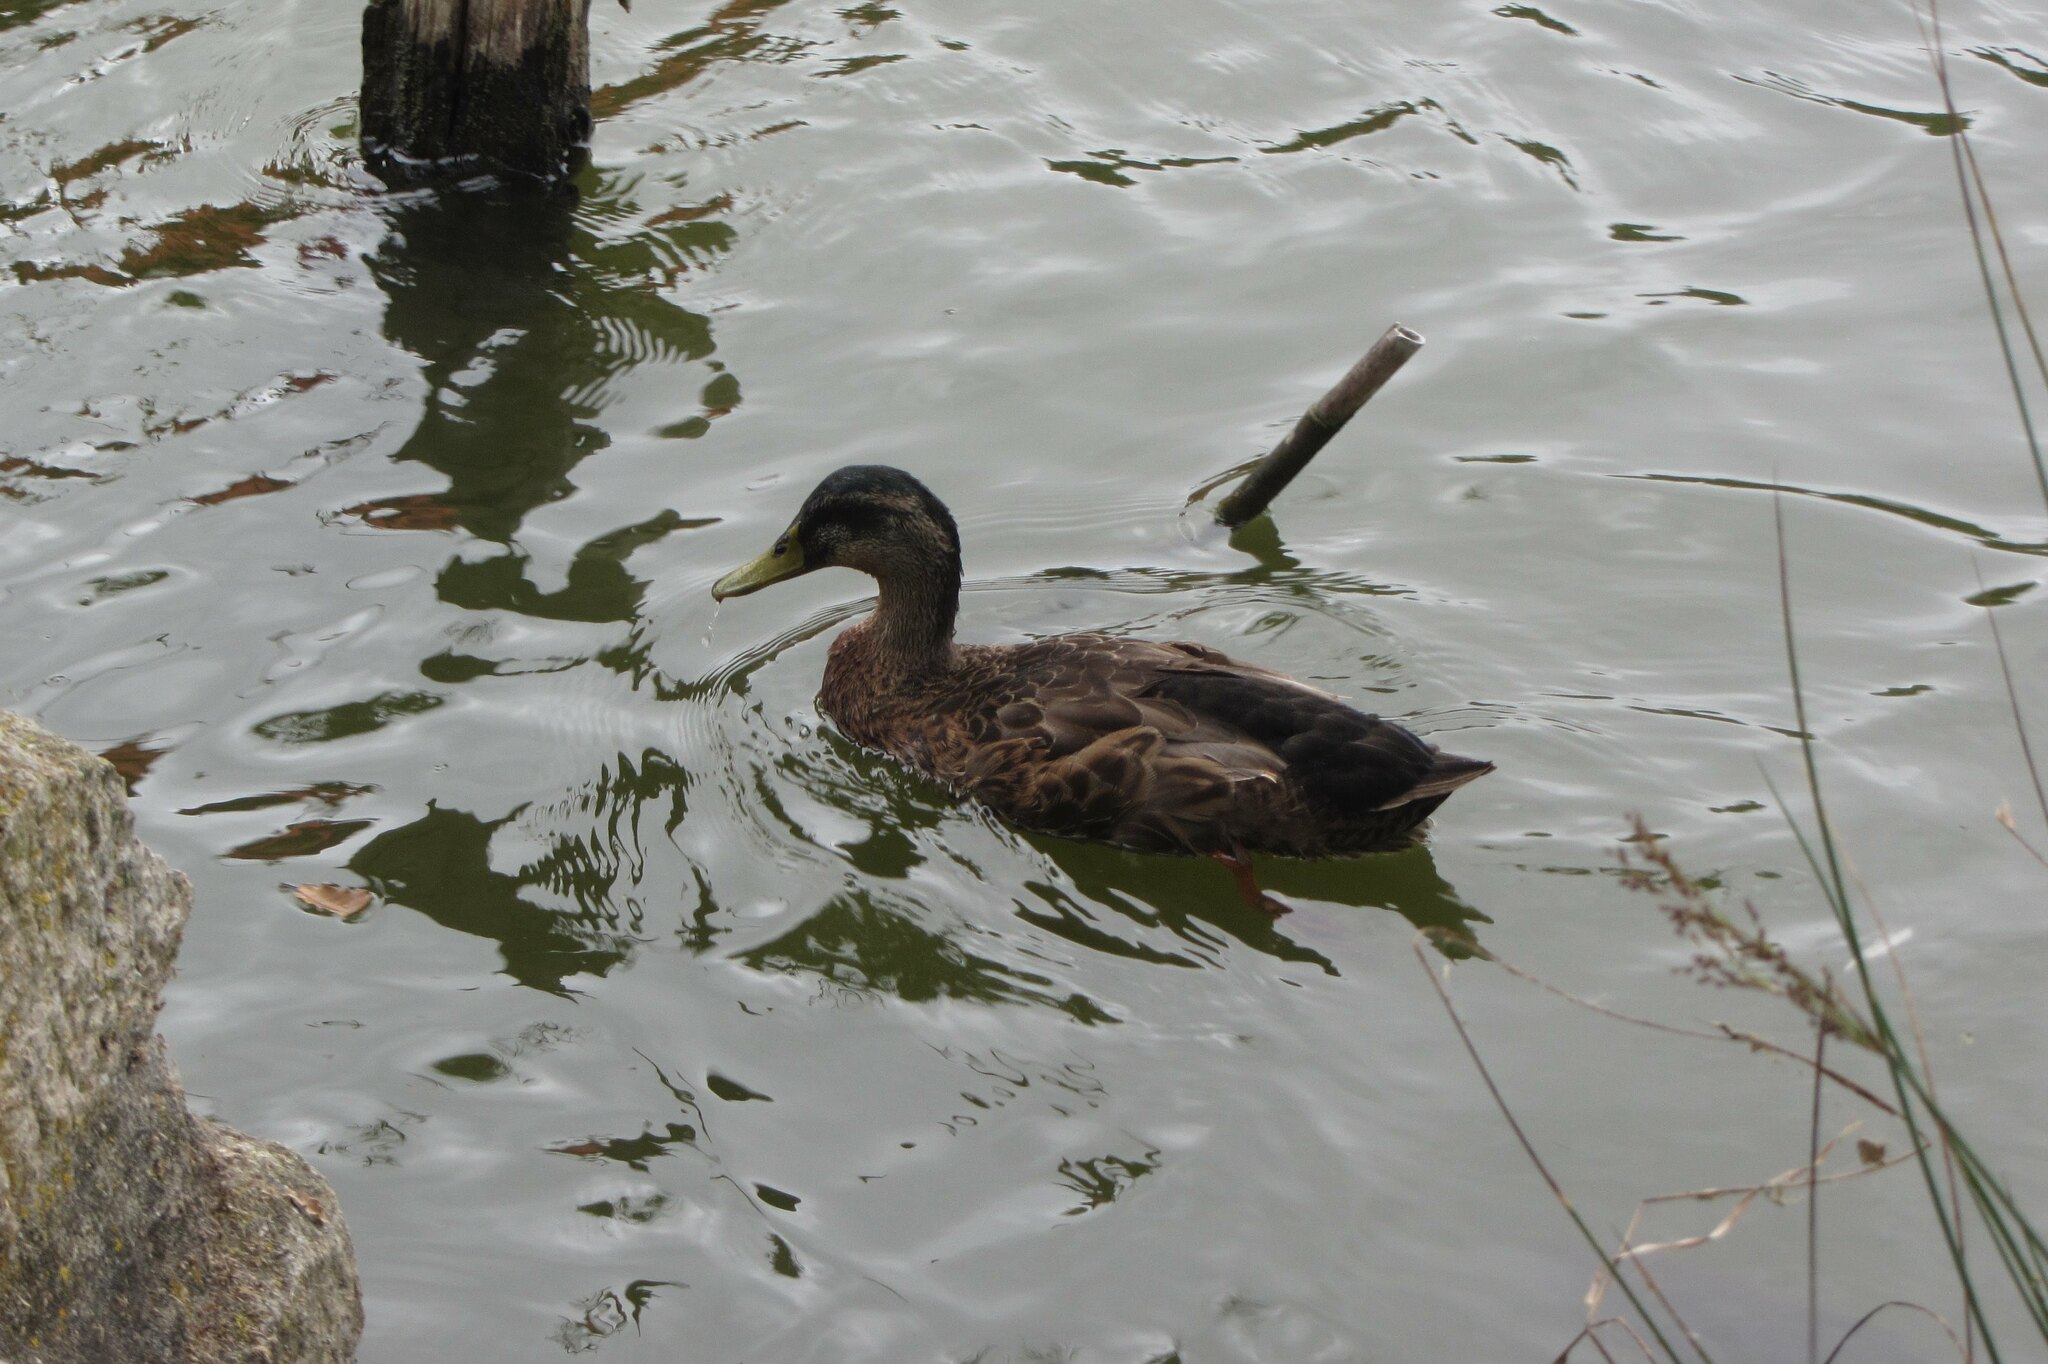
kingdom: Animalia
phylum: Chordata
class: Aves
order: Anseriformes
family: Anatidae
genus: Anas
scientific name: Anas platyrhynchos
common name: Mallard
